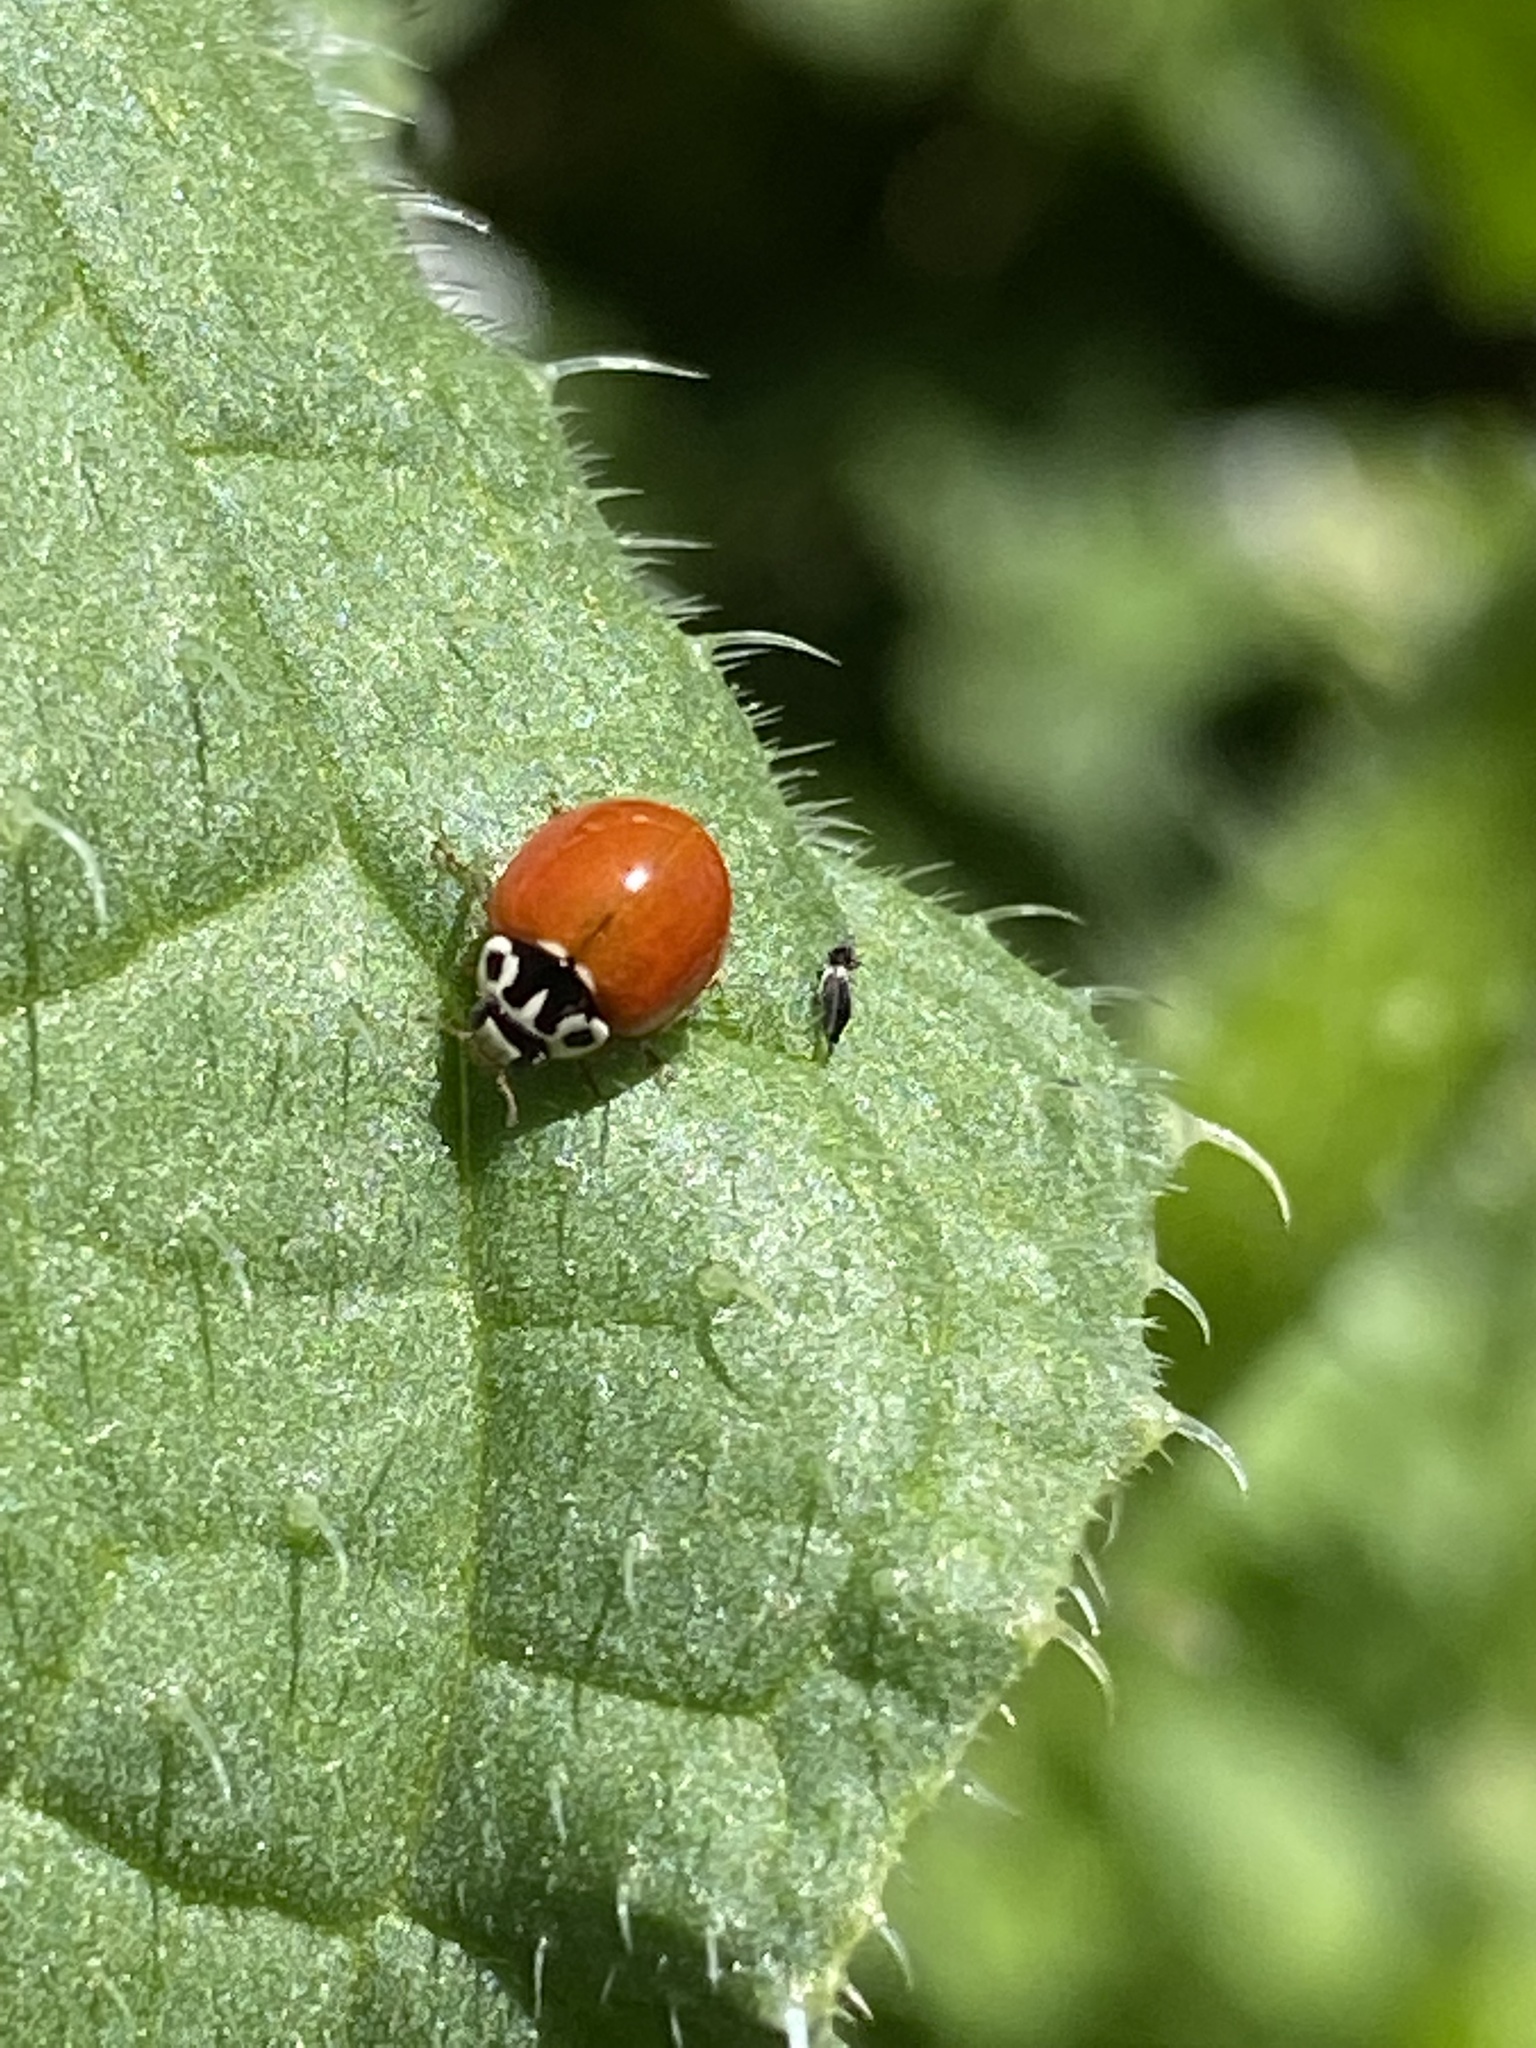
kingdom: Animalia
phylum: Arthropoda
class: Insecta
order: Coleoptera
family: Coccinellidae
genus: Cycloneda
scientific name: Cycloneda polita
